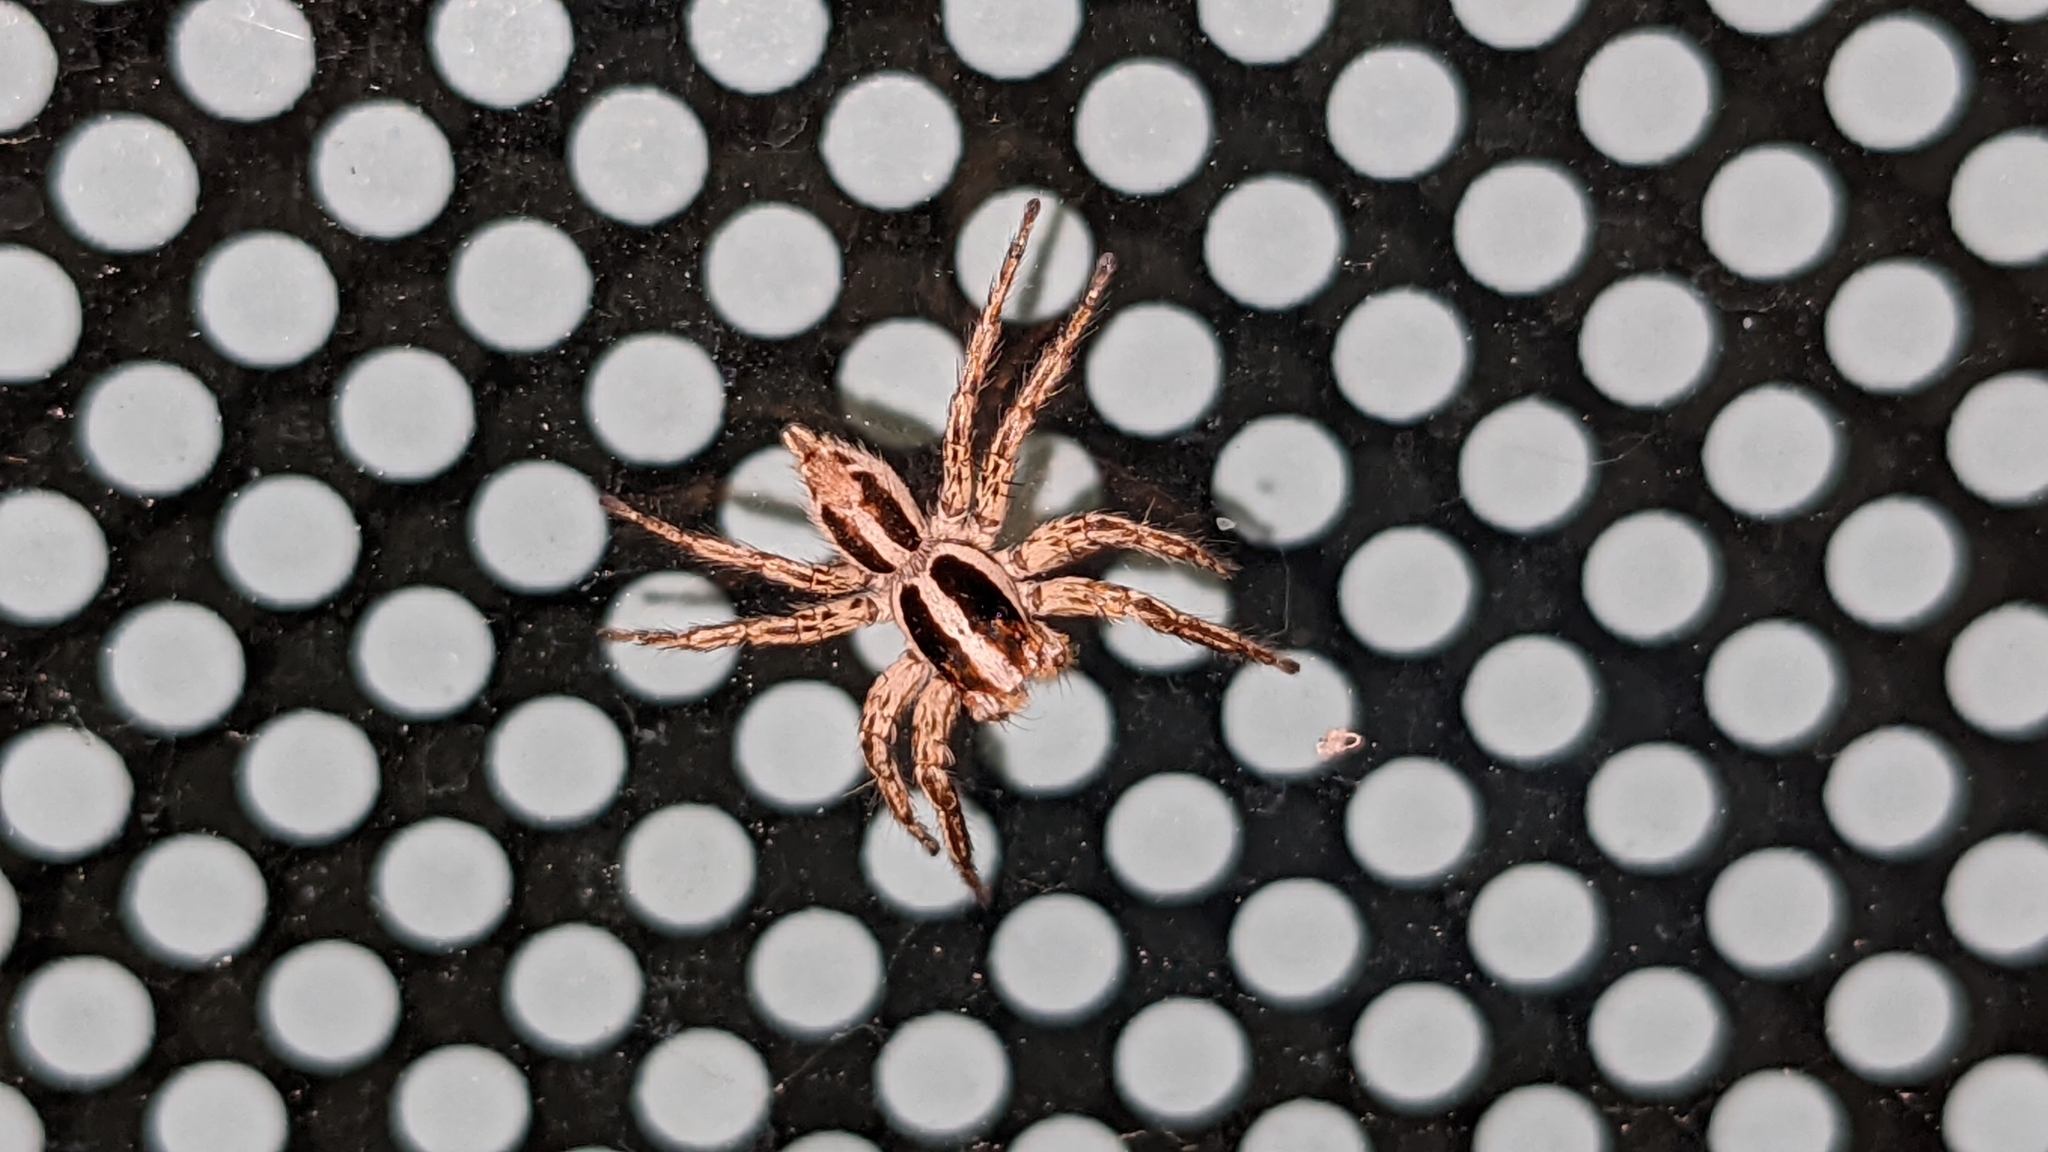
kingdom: Animalia
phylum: Arthropoda
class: Arachnida
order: Araneae
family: Salticidae
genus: Plexippus
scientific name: Plexippus paykulli
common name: Pantropical jumper
